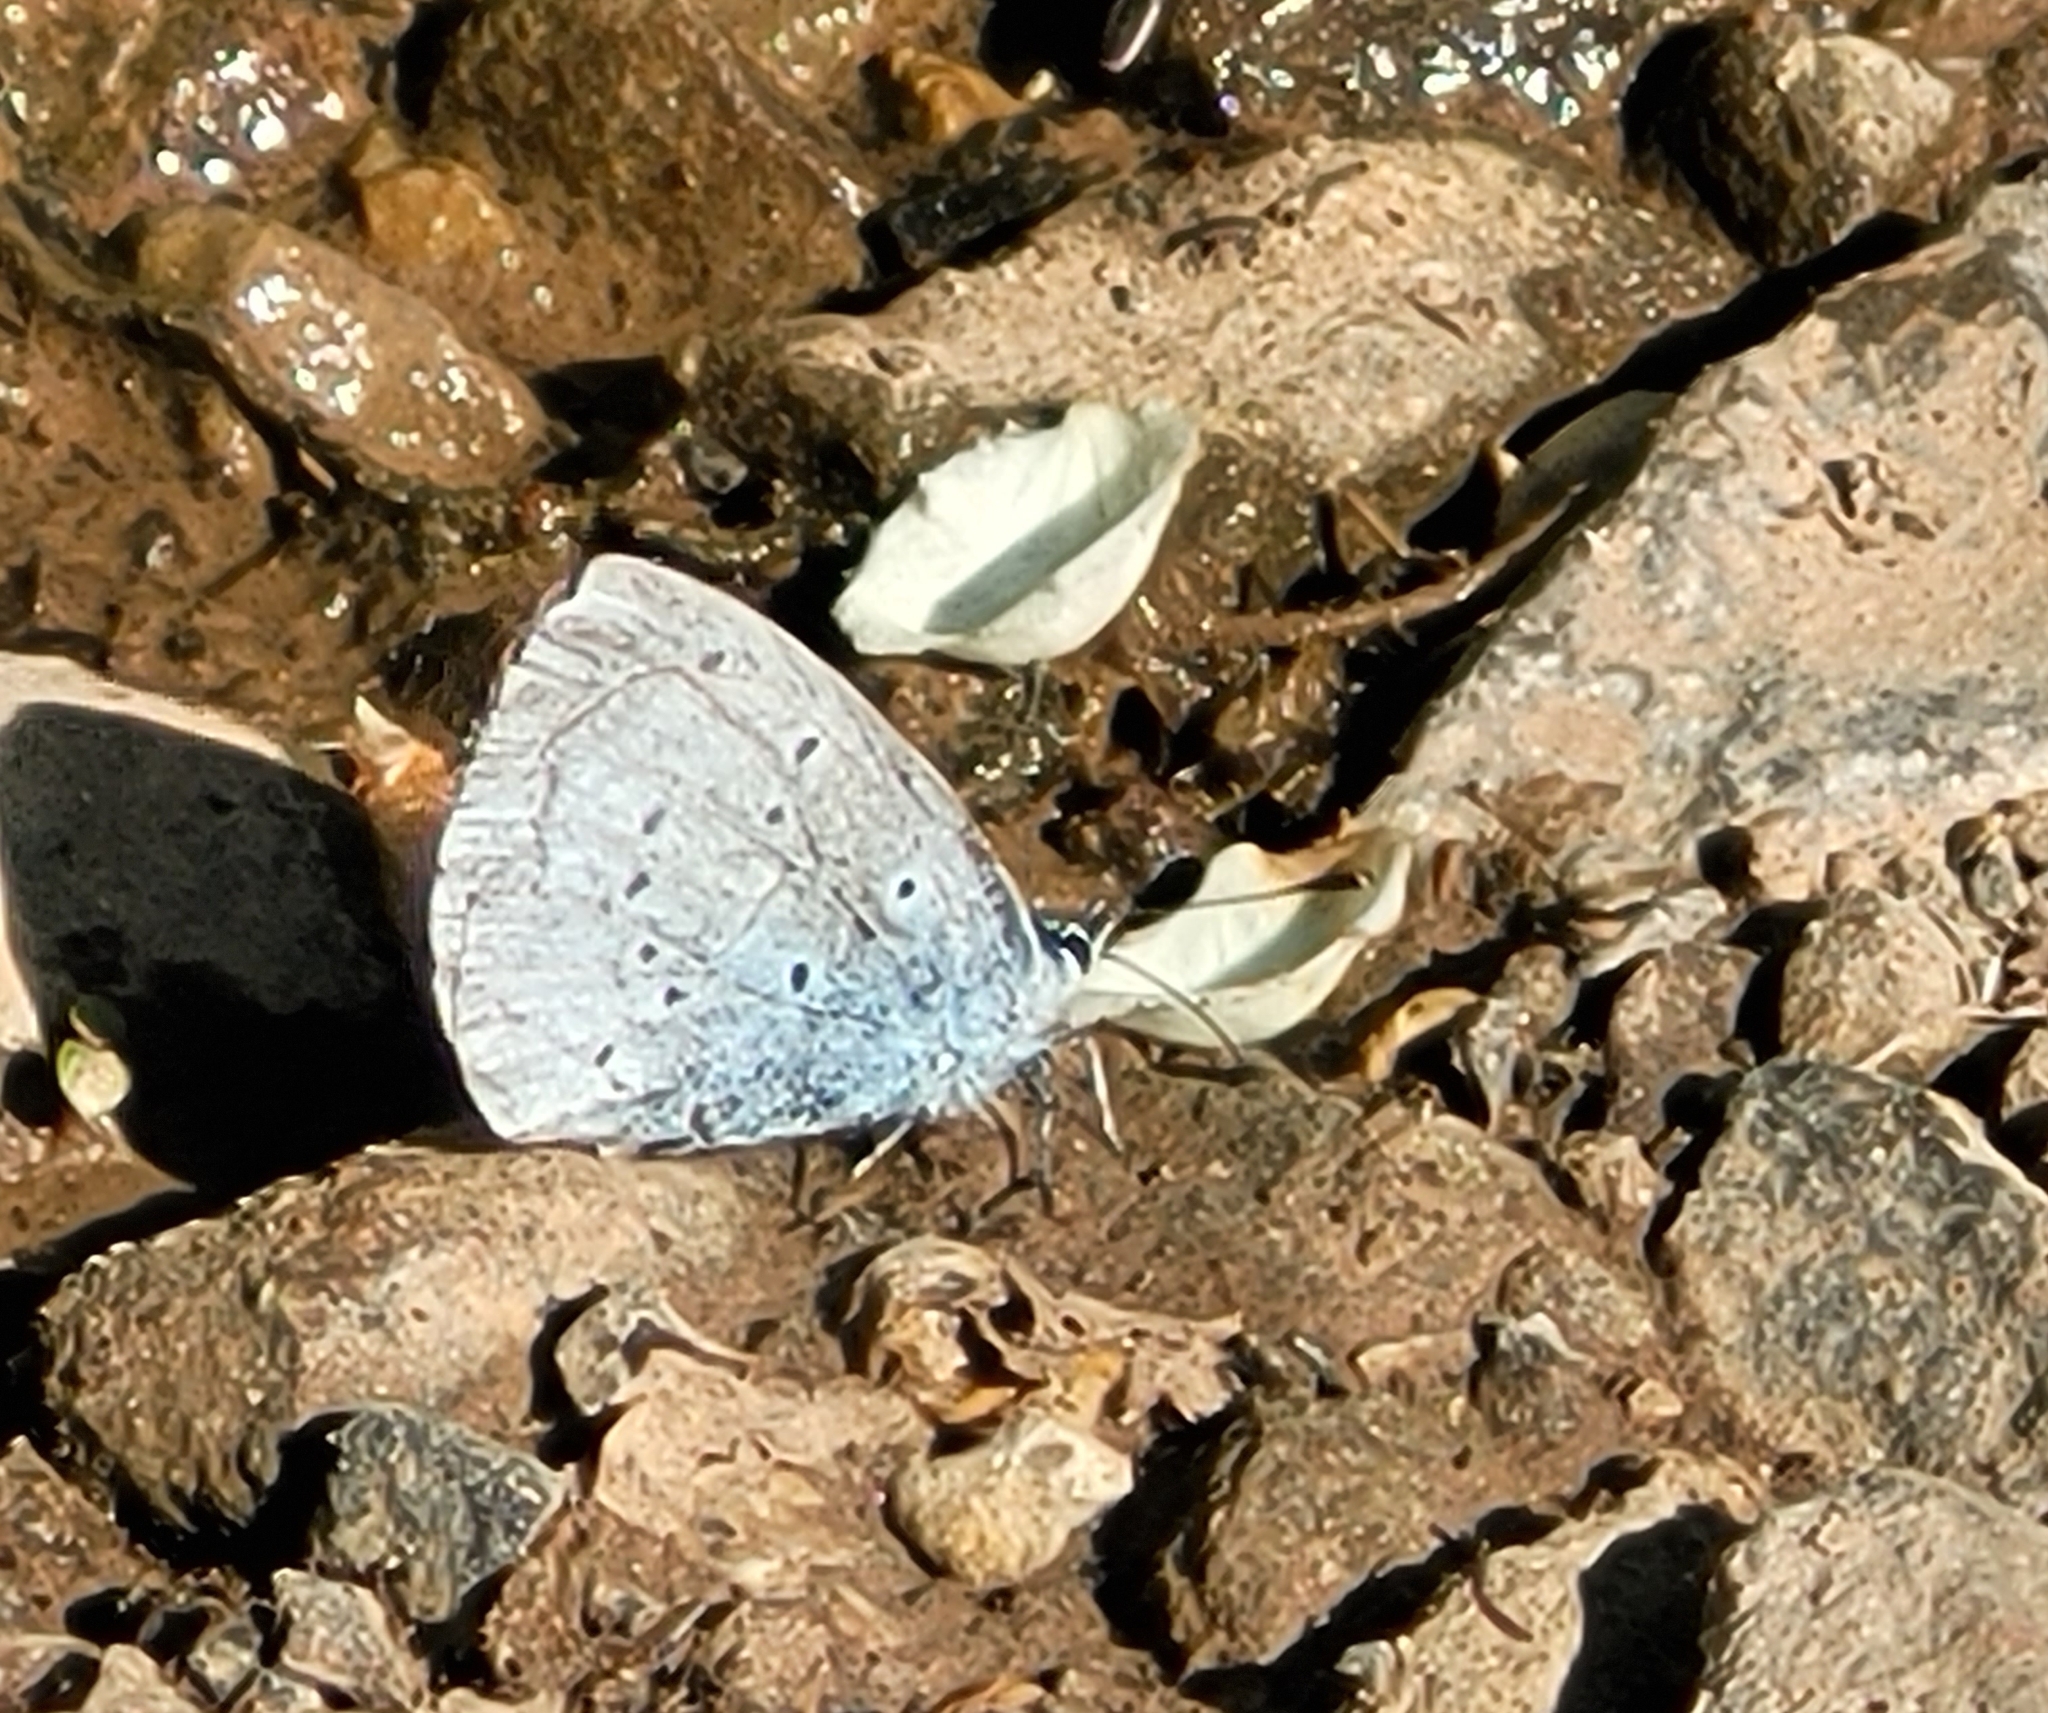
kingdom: Animalia
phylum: Arthropoda
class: Insecta
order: Lepidoptera
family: Lycaenidae
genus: Celastrina
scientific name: Celastrina argiolus
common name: Holly blue
